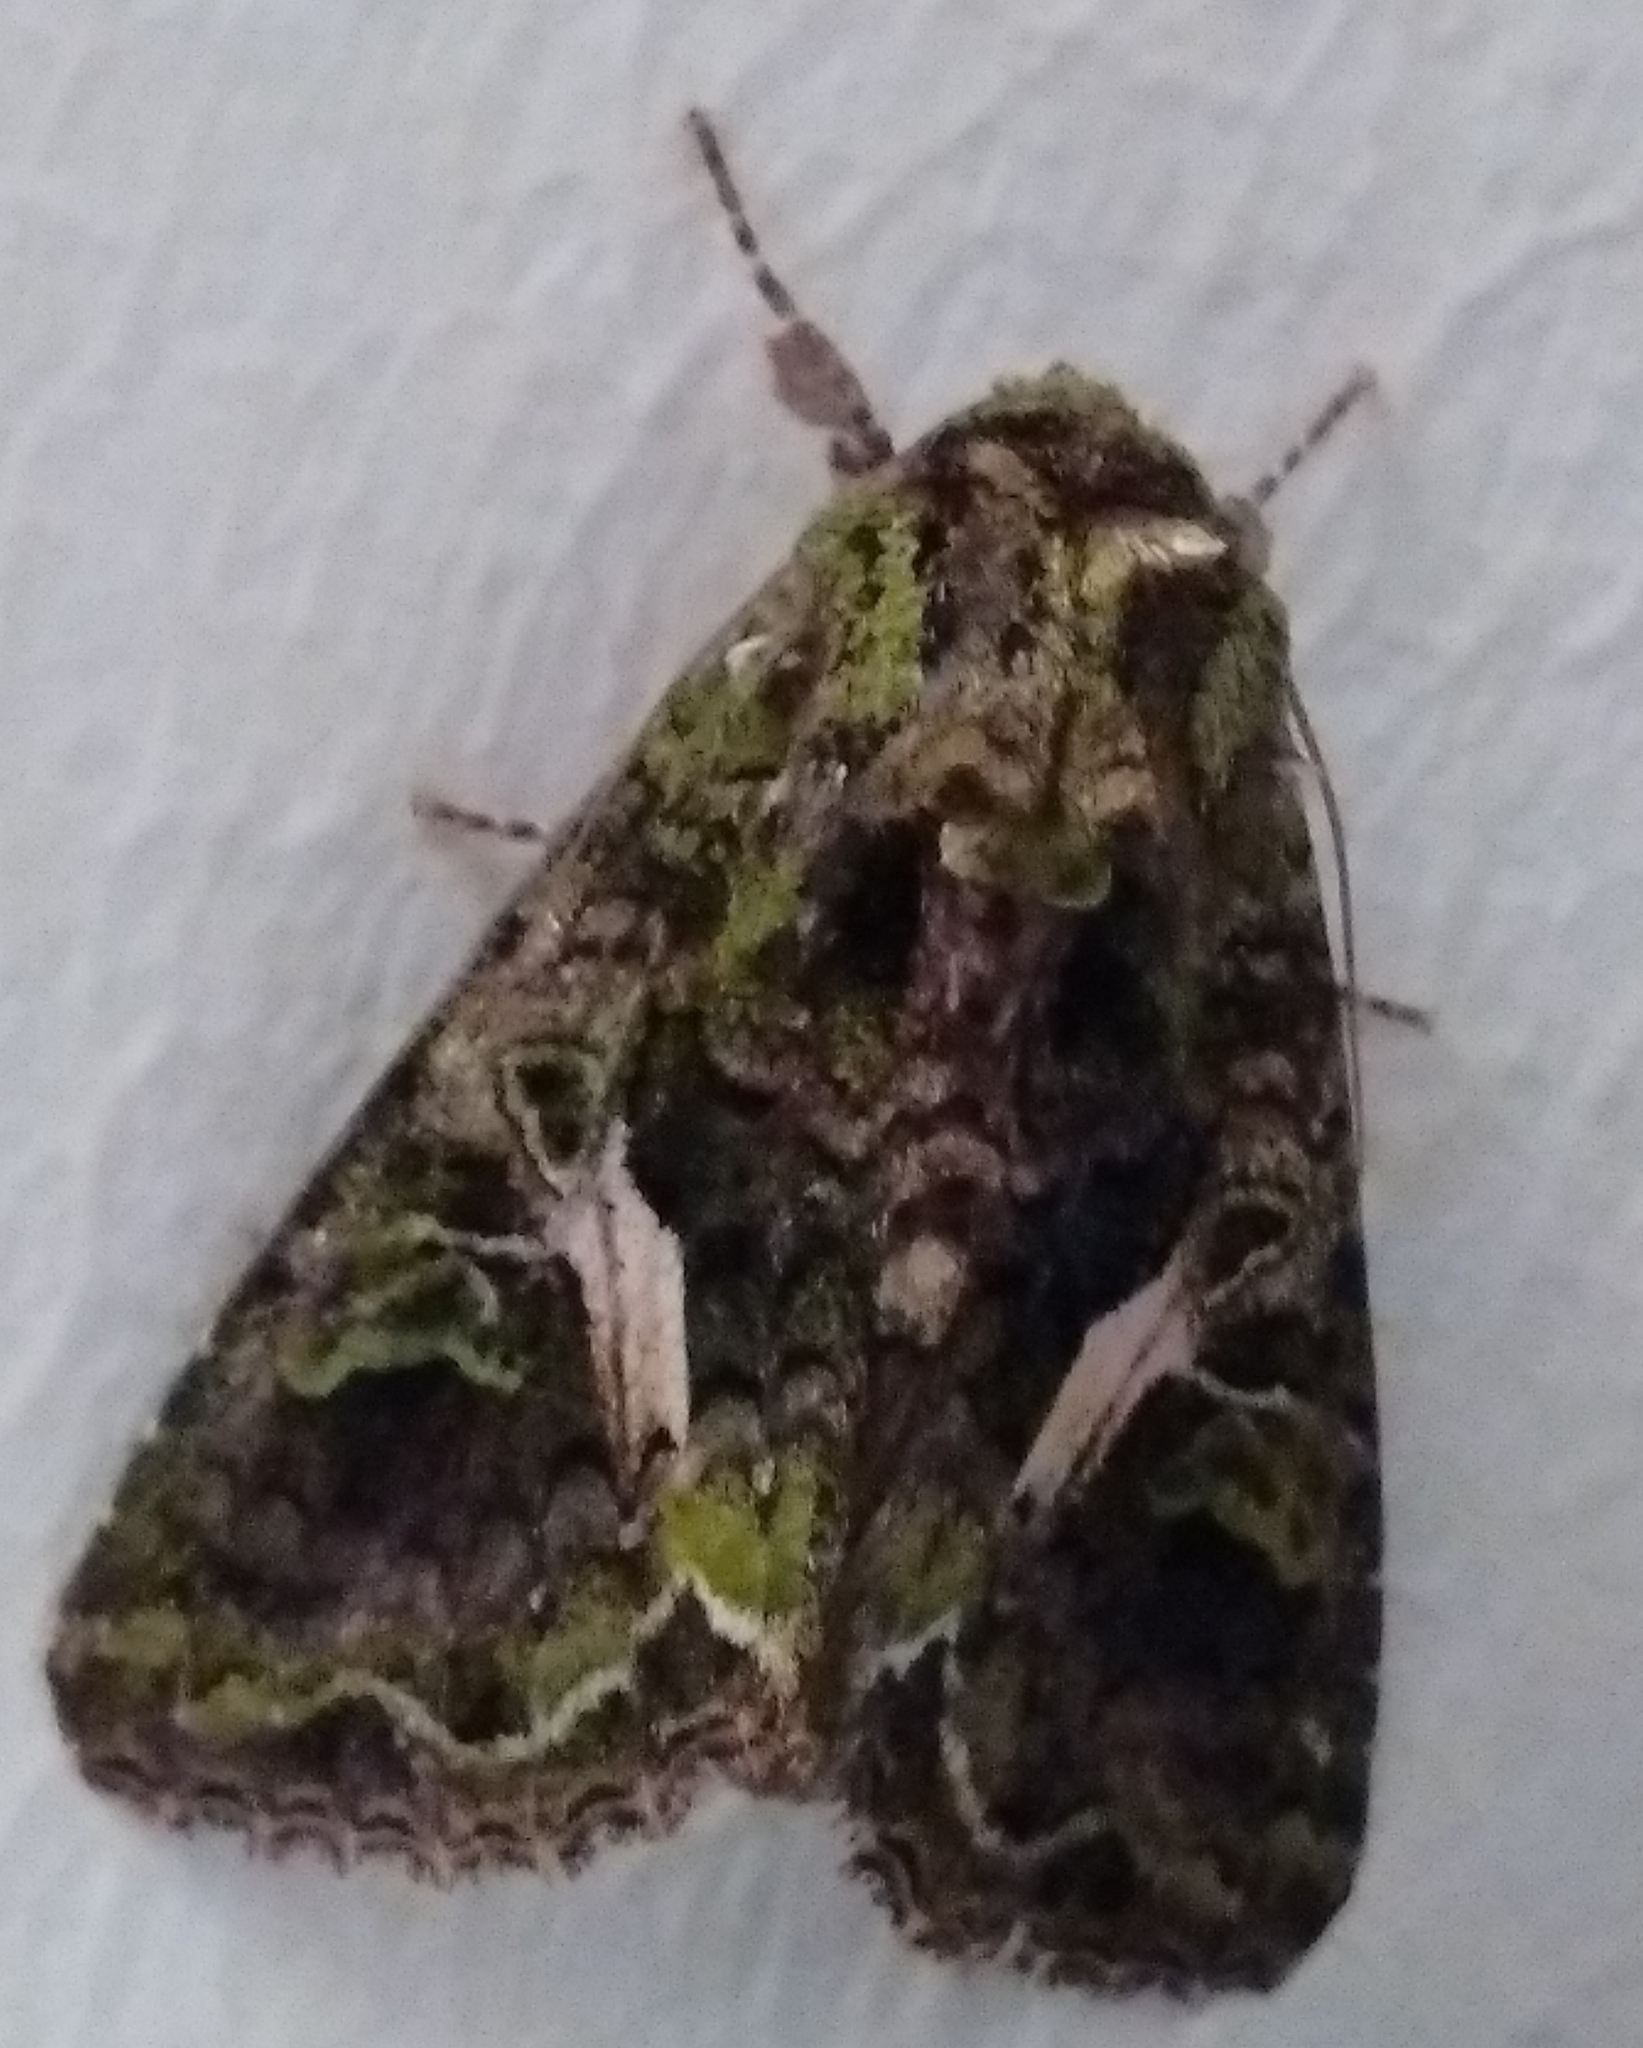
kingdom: Animalia
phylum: Arthropoda
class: Insecta
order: Lepidoptera
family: Noctuidae
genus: Trachea
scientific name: Trachea atriplicis
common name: Orache moth
